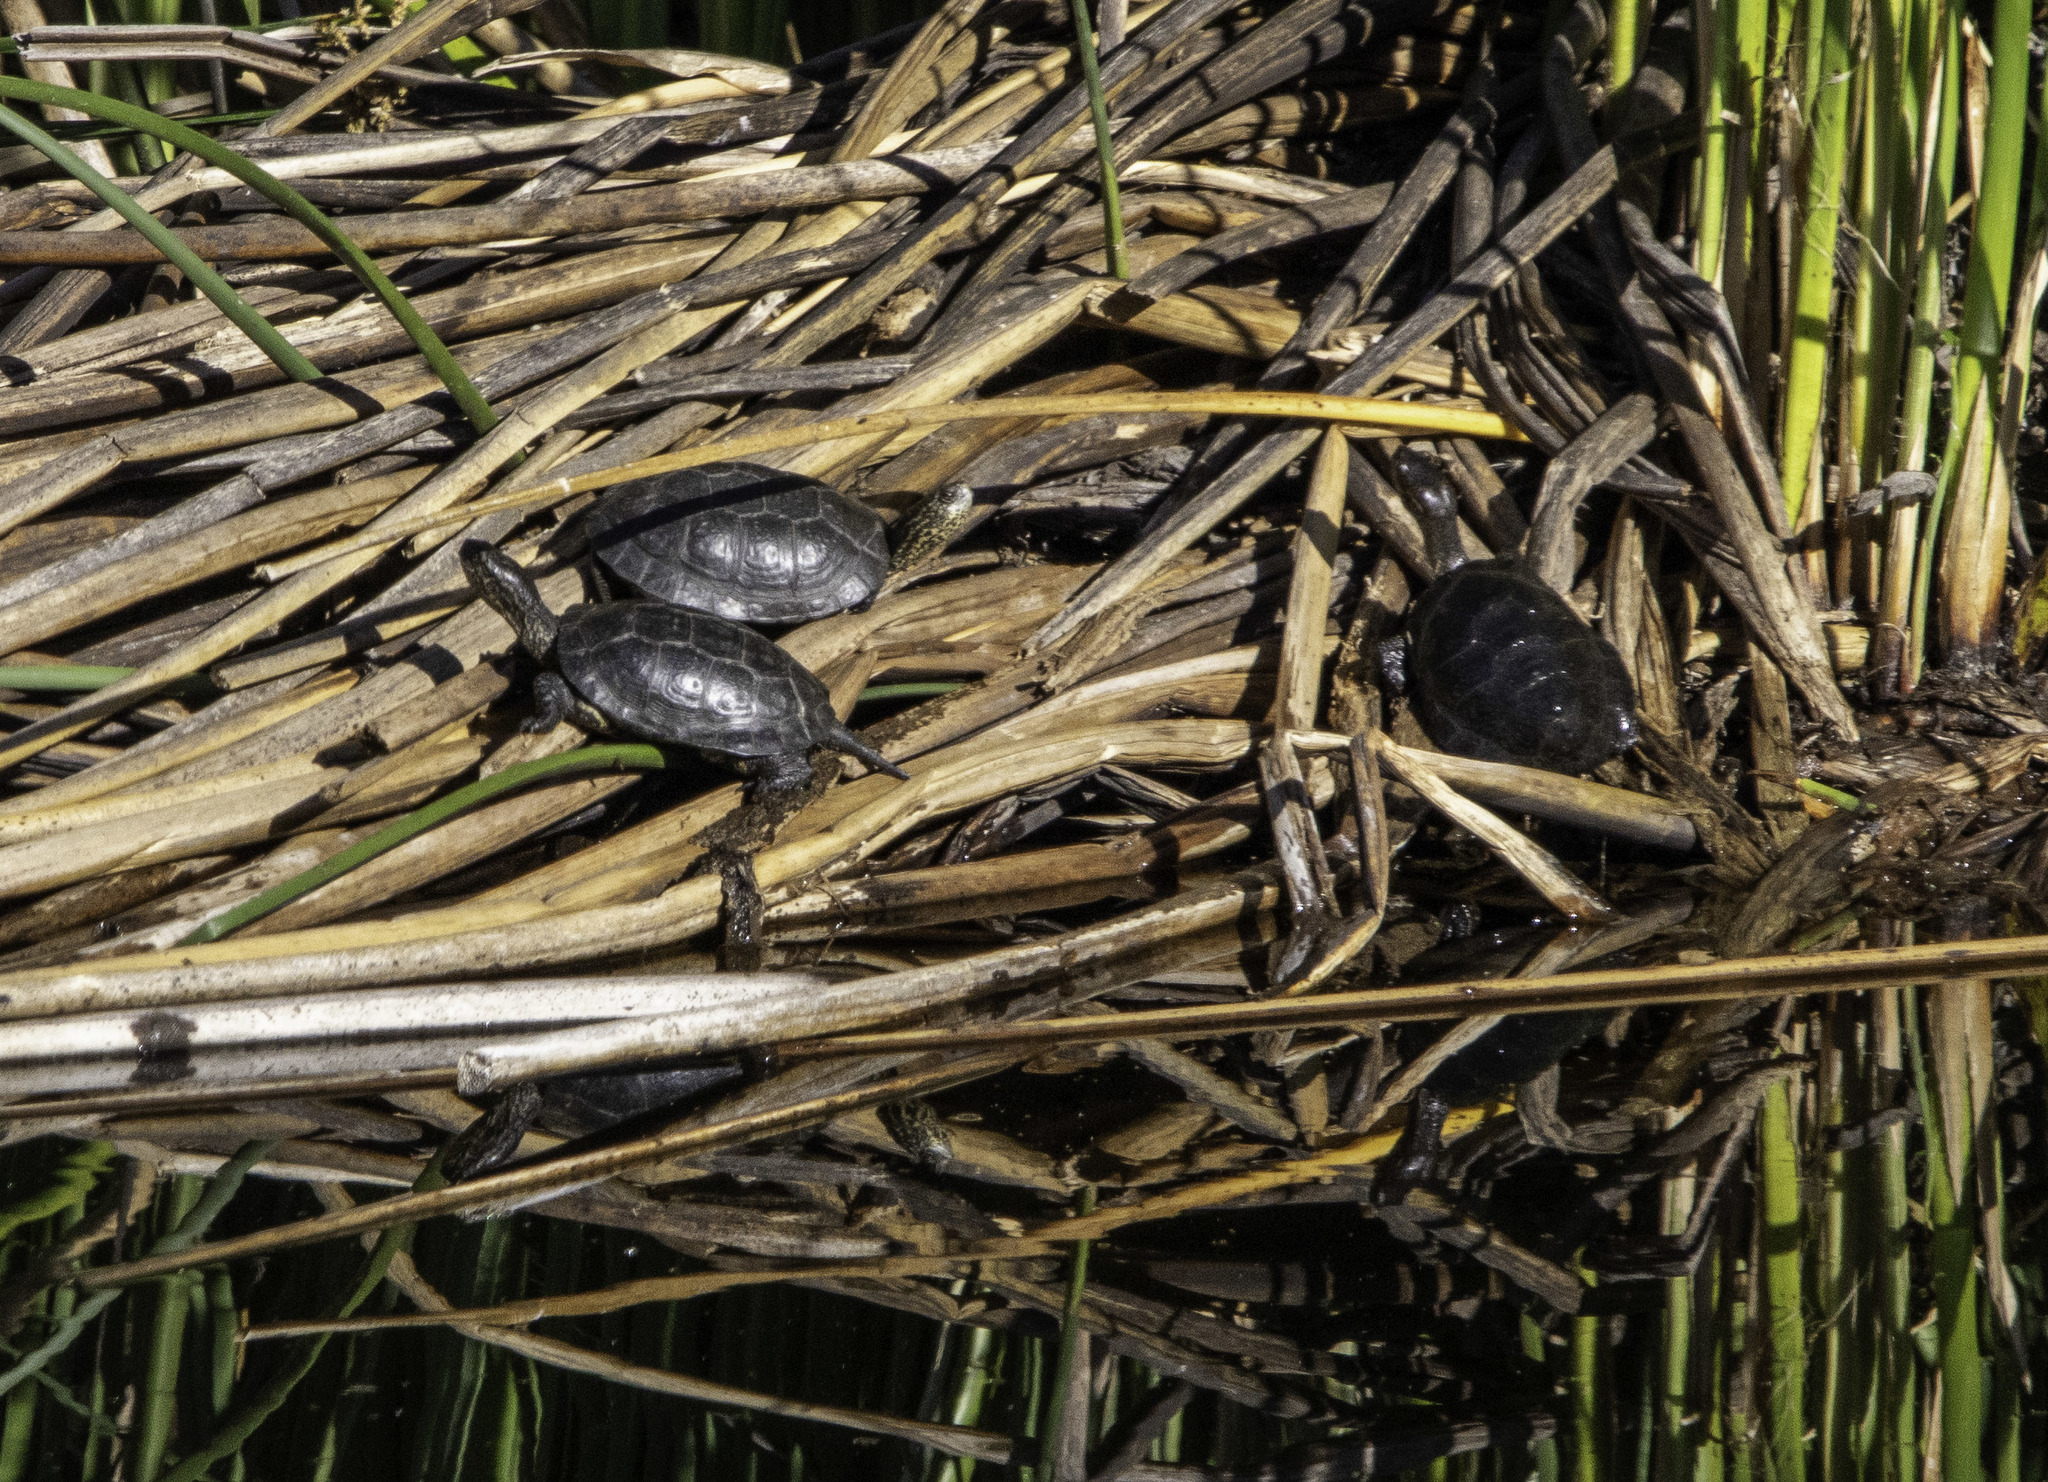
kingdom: Animalia
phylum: Chordata
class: Testudines
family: Emydidae
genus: Actinemys
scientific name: Actinemys marmorata
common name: Western pond turtle
